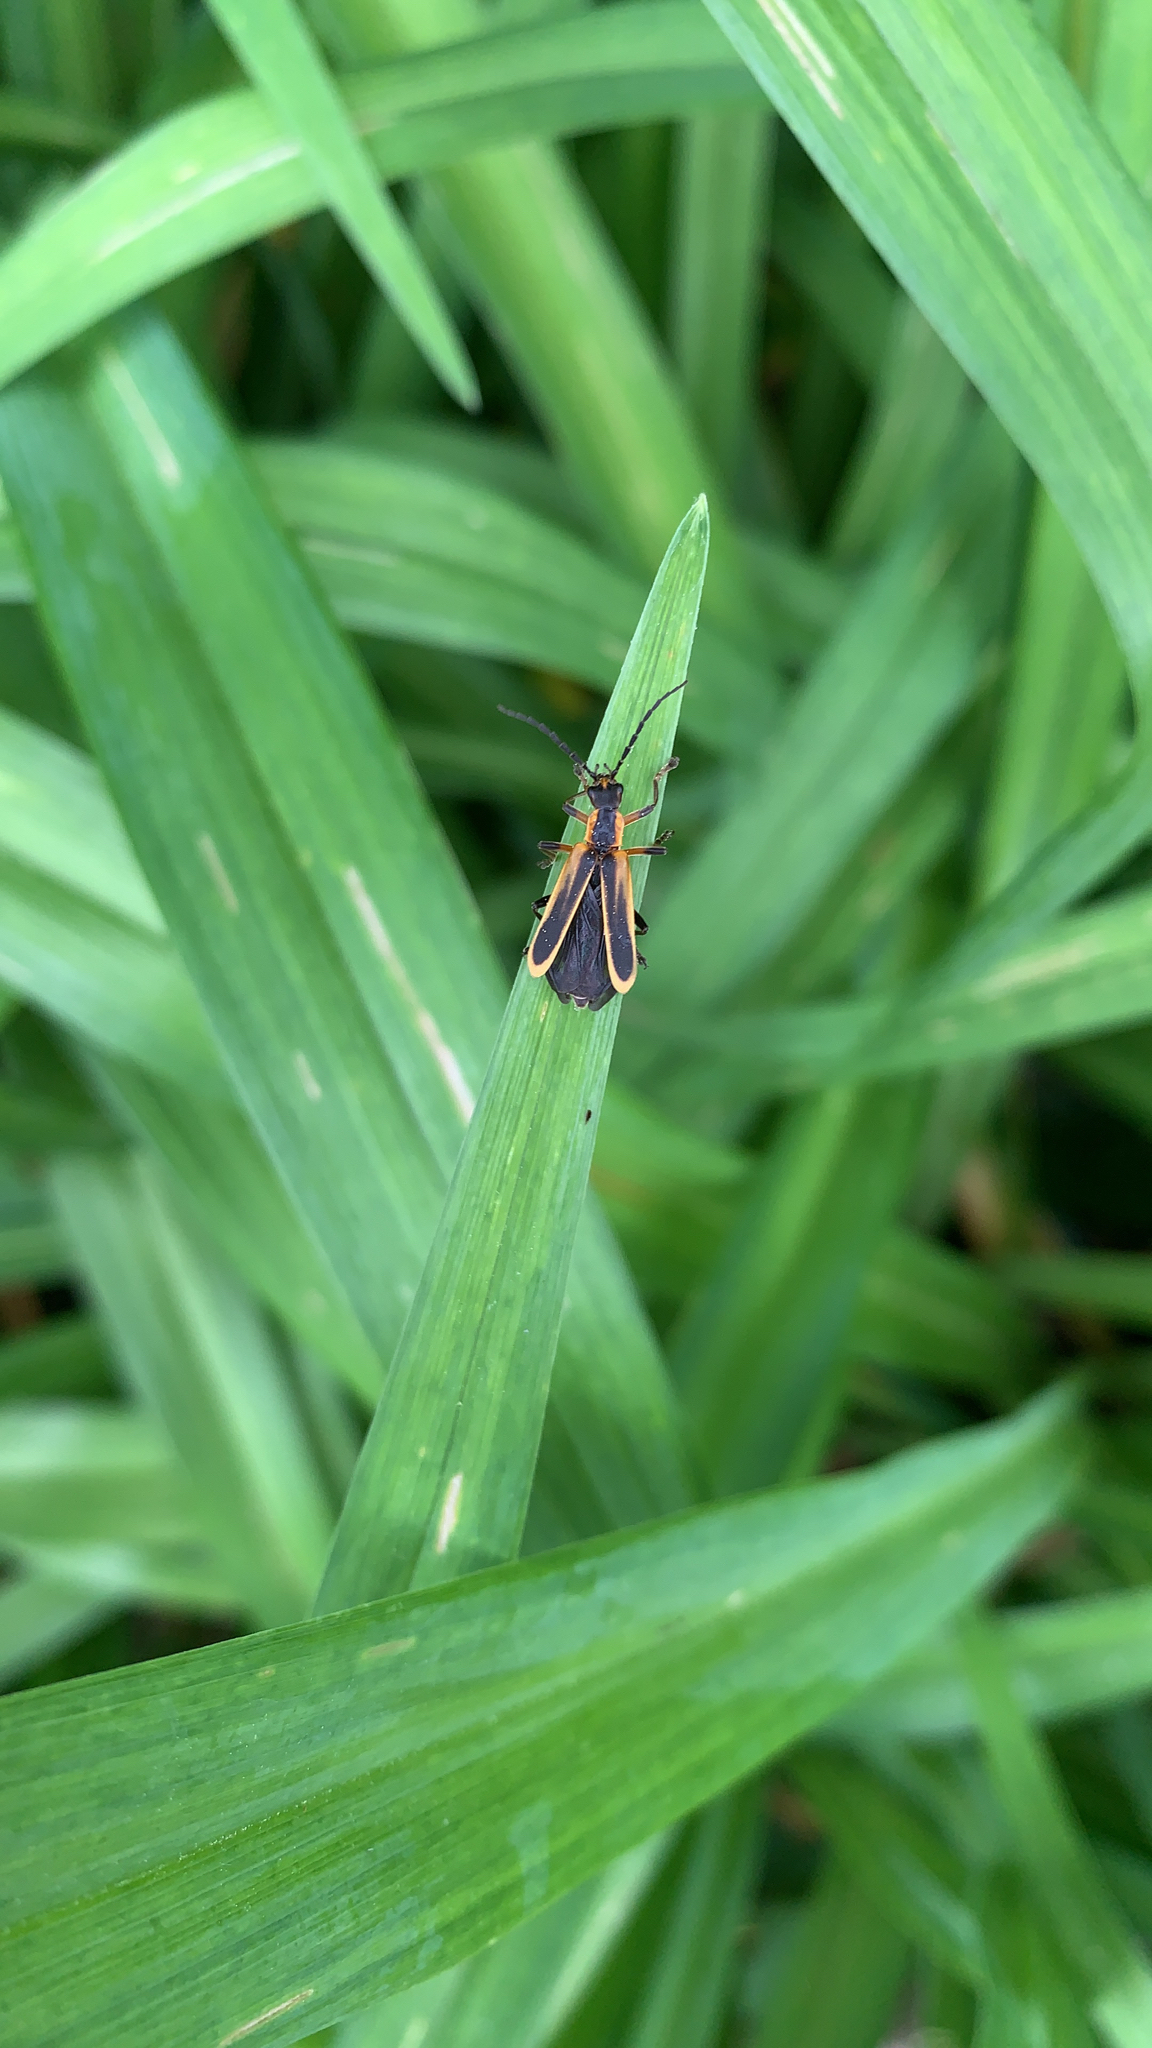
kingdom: Animalia
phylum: Arthropoda
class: Insecta
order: Coleoptera
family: Cantharidae
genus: Chauliognathus
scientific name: Chauliognathus marginatus
